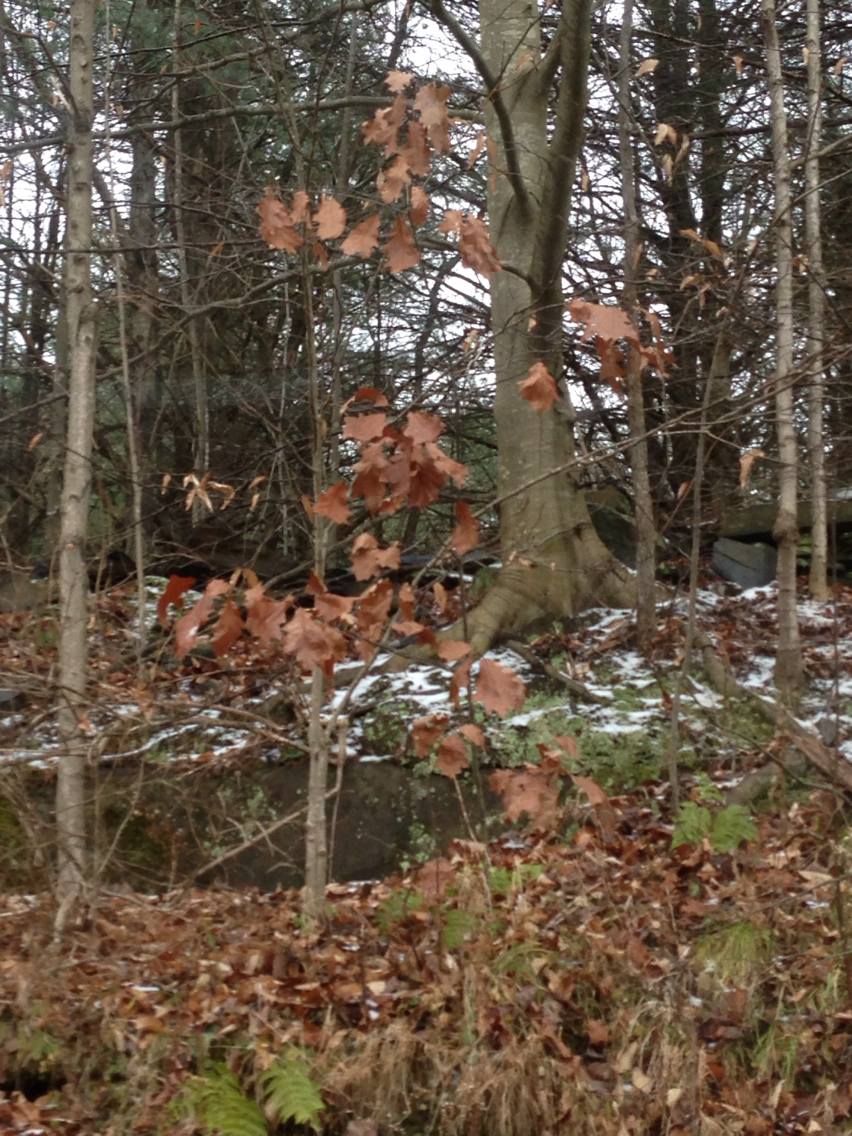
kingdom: Plantae
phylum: Tracheophyta
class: Magnoliopsida
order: Fagales
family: Fagaceae
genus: Quercus
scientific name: Quercus rubra
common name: Red oak
